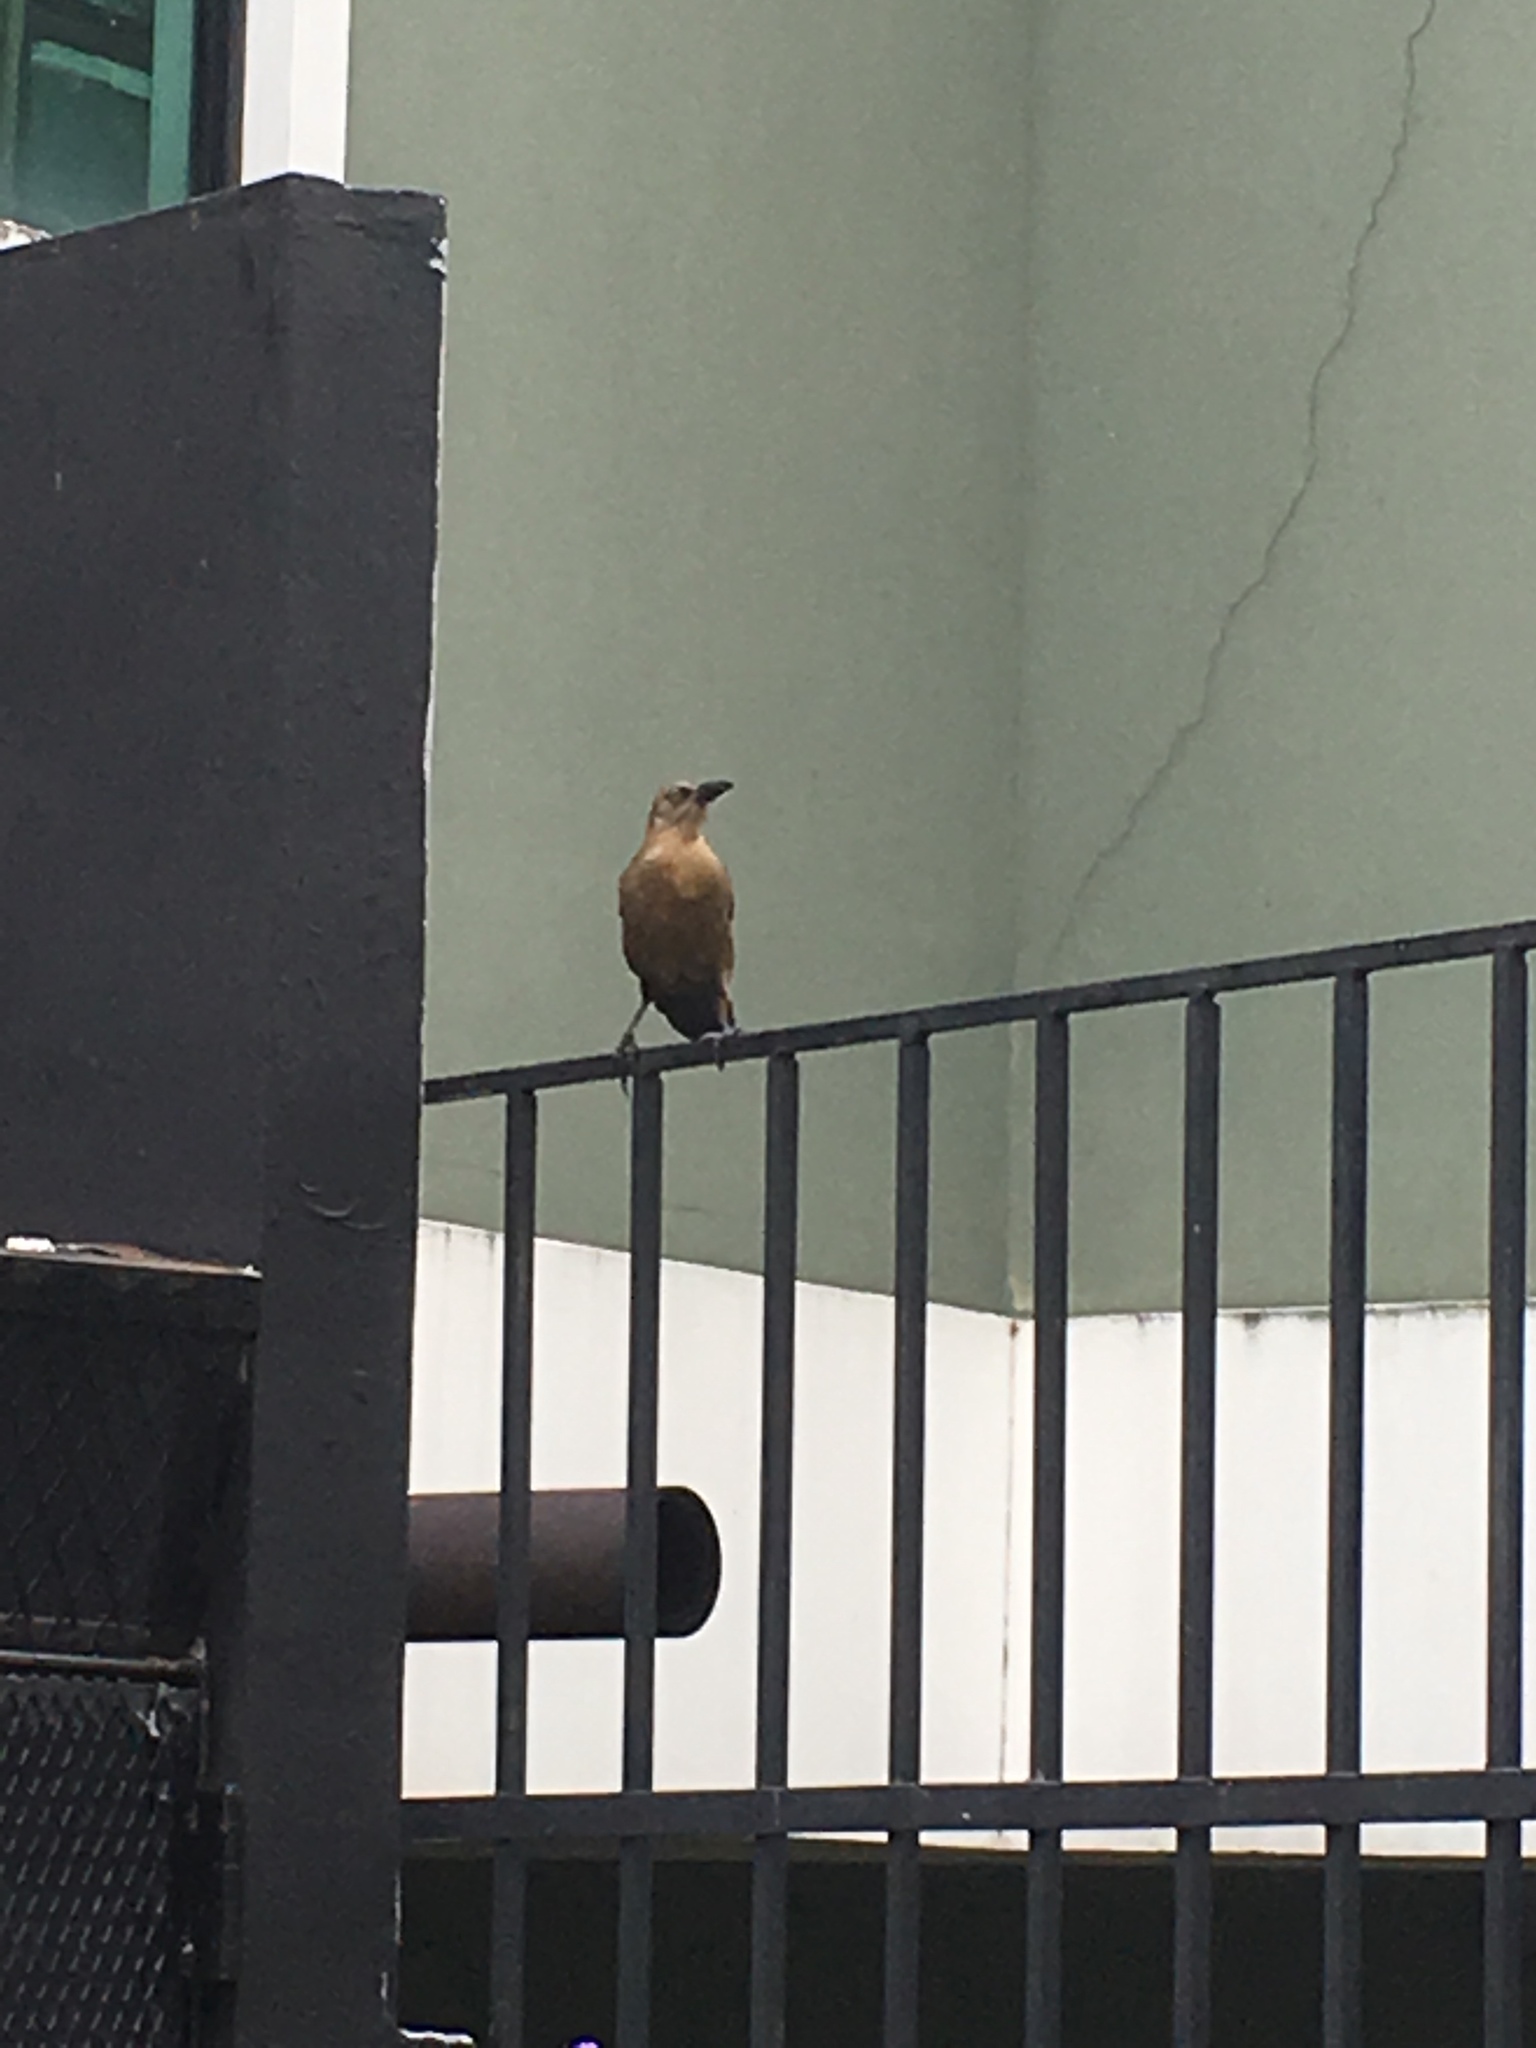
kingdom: Animalia
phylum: Chordata
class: Aves
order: Passeriformes
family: Icteridae
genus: Quiscalus
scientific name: Quiscalus mexicanus
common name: Great-tailed grackle
